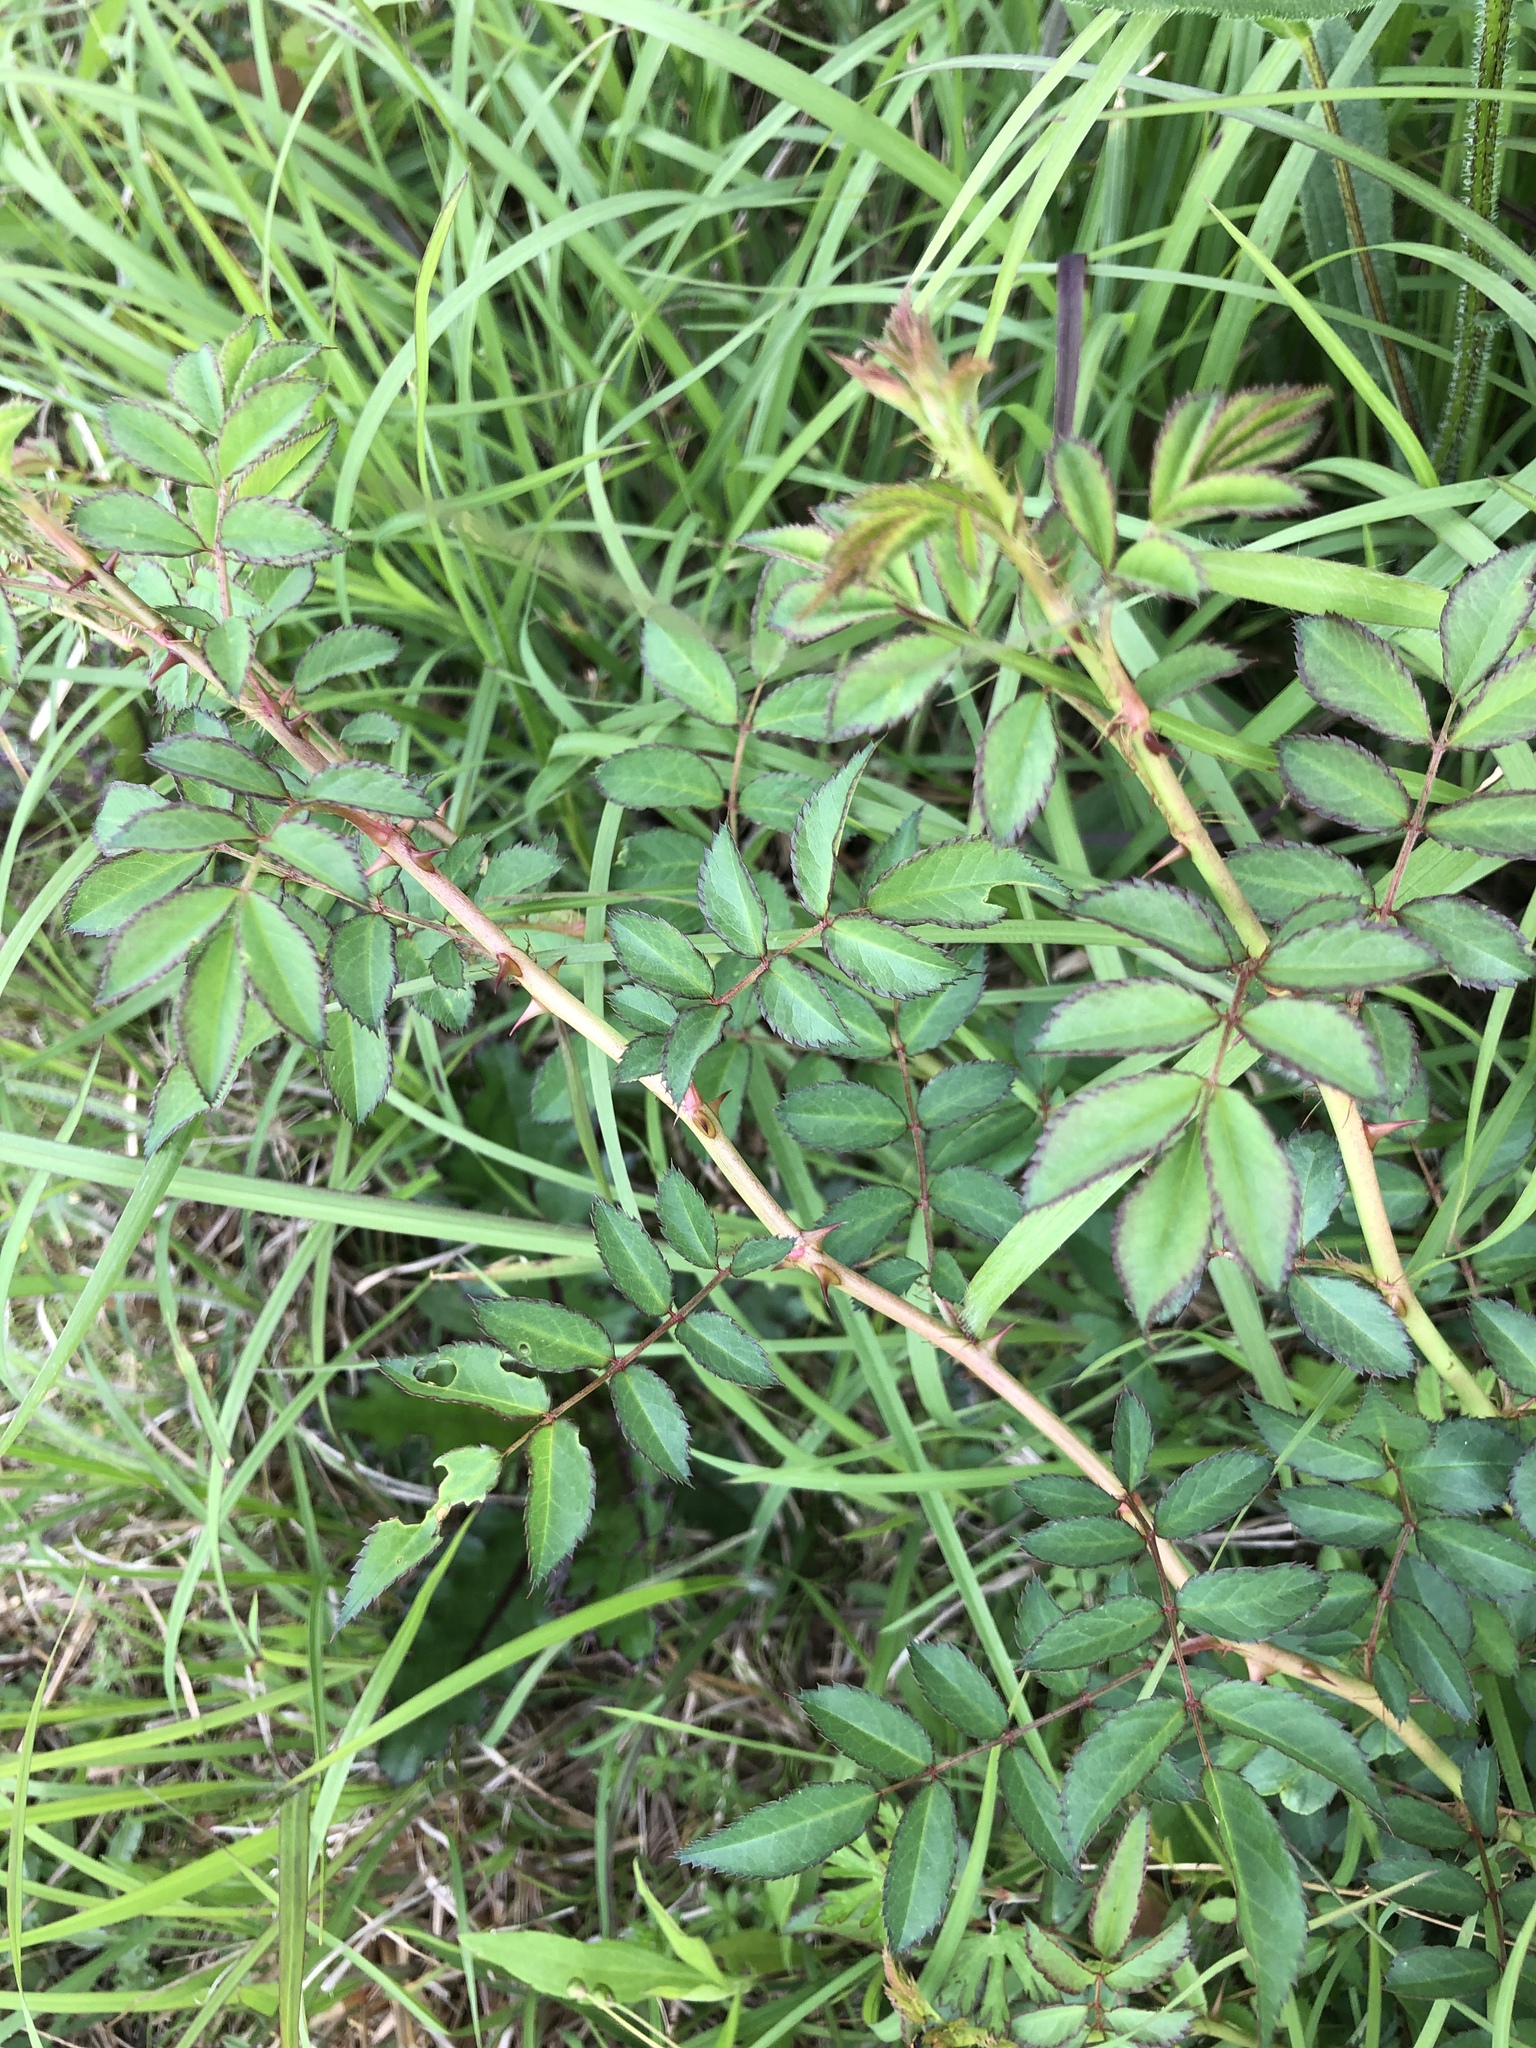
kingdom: Plantae
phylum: Tracheophyta
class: Magnoliopsida
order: Rosales
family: Rosaceae
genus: Rosa
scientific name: Rosa multiflora
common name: Multiflora rose
